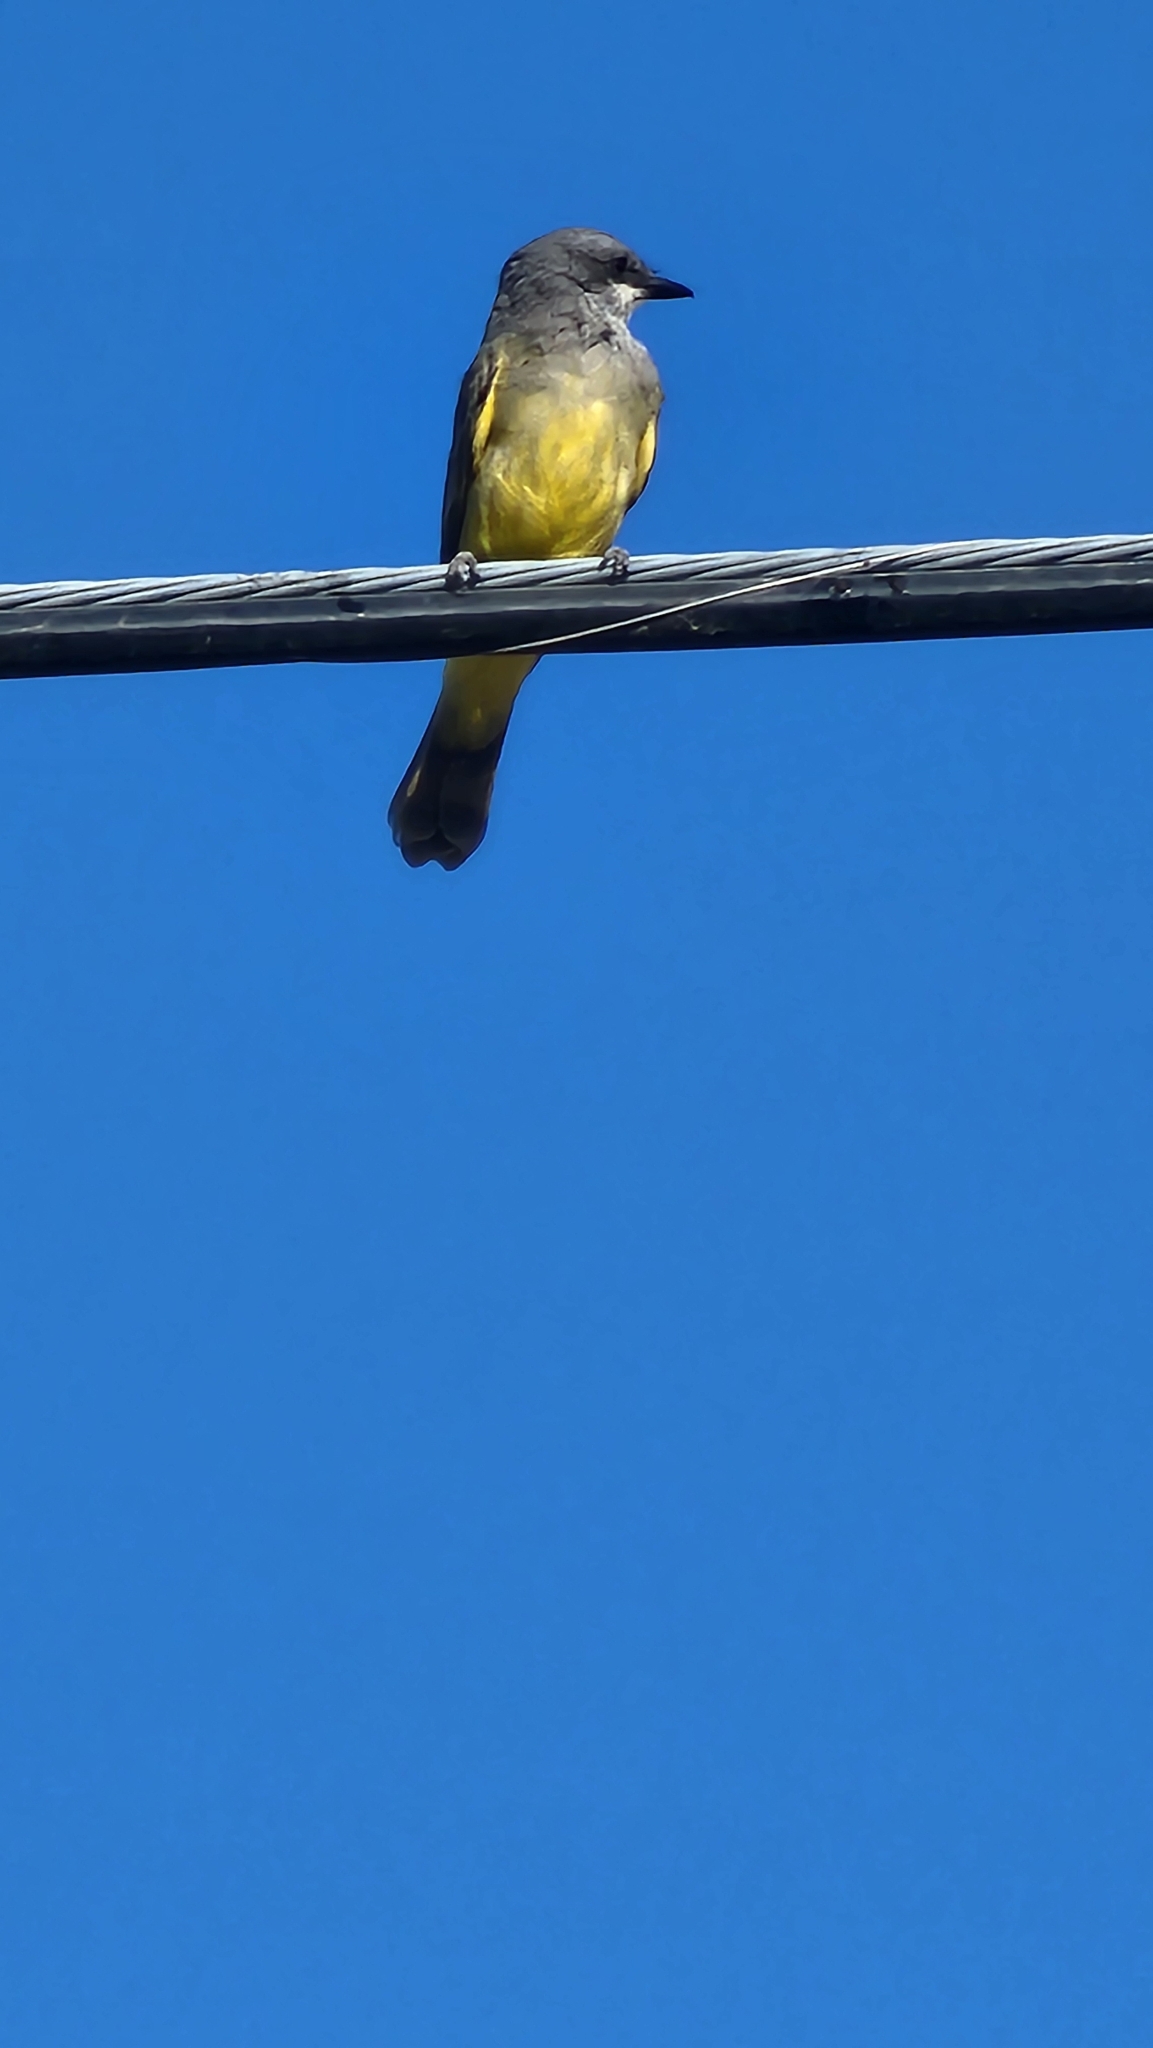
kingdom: Animalia
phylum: Chordata
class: Aves
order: Passeriformes
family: Tyrannidae
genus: Tyrannus
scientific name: Tyrannus vociferans
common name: Cassin's kingbird
